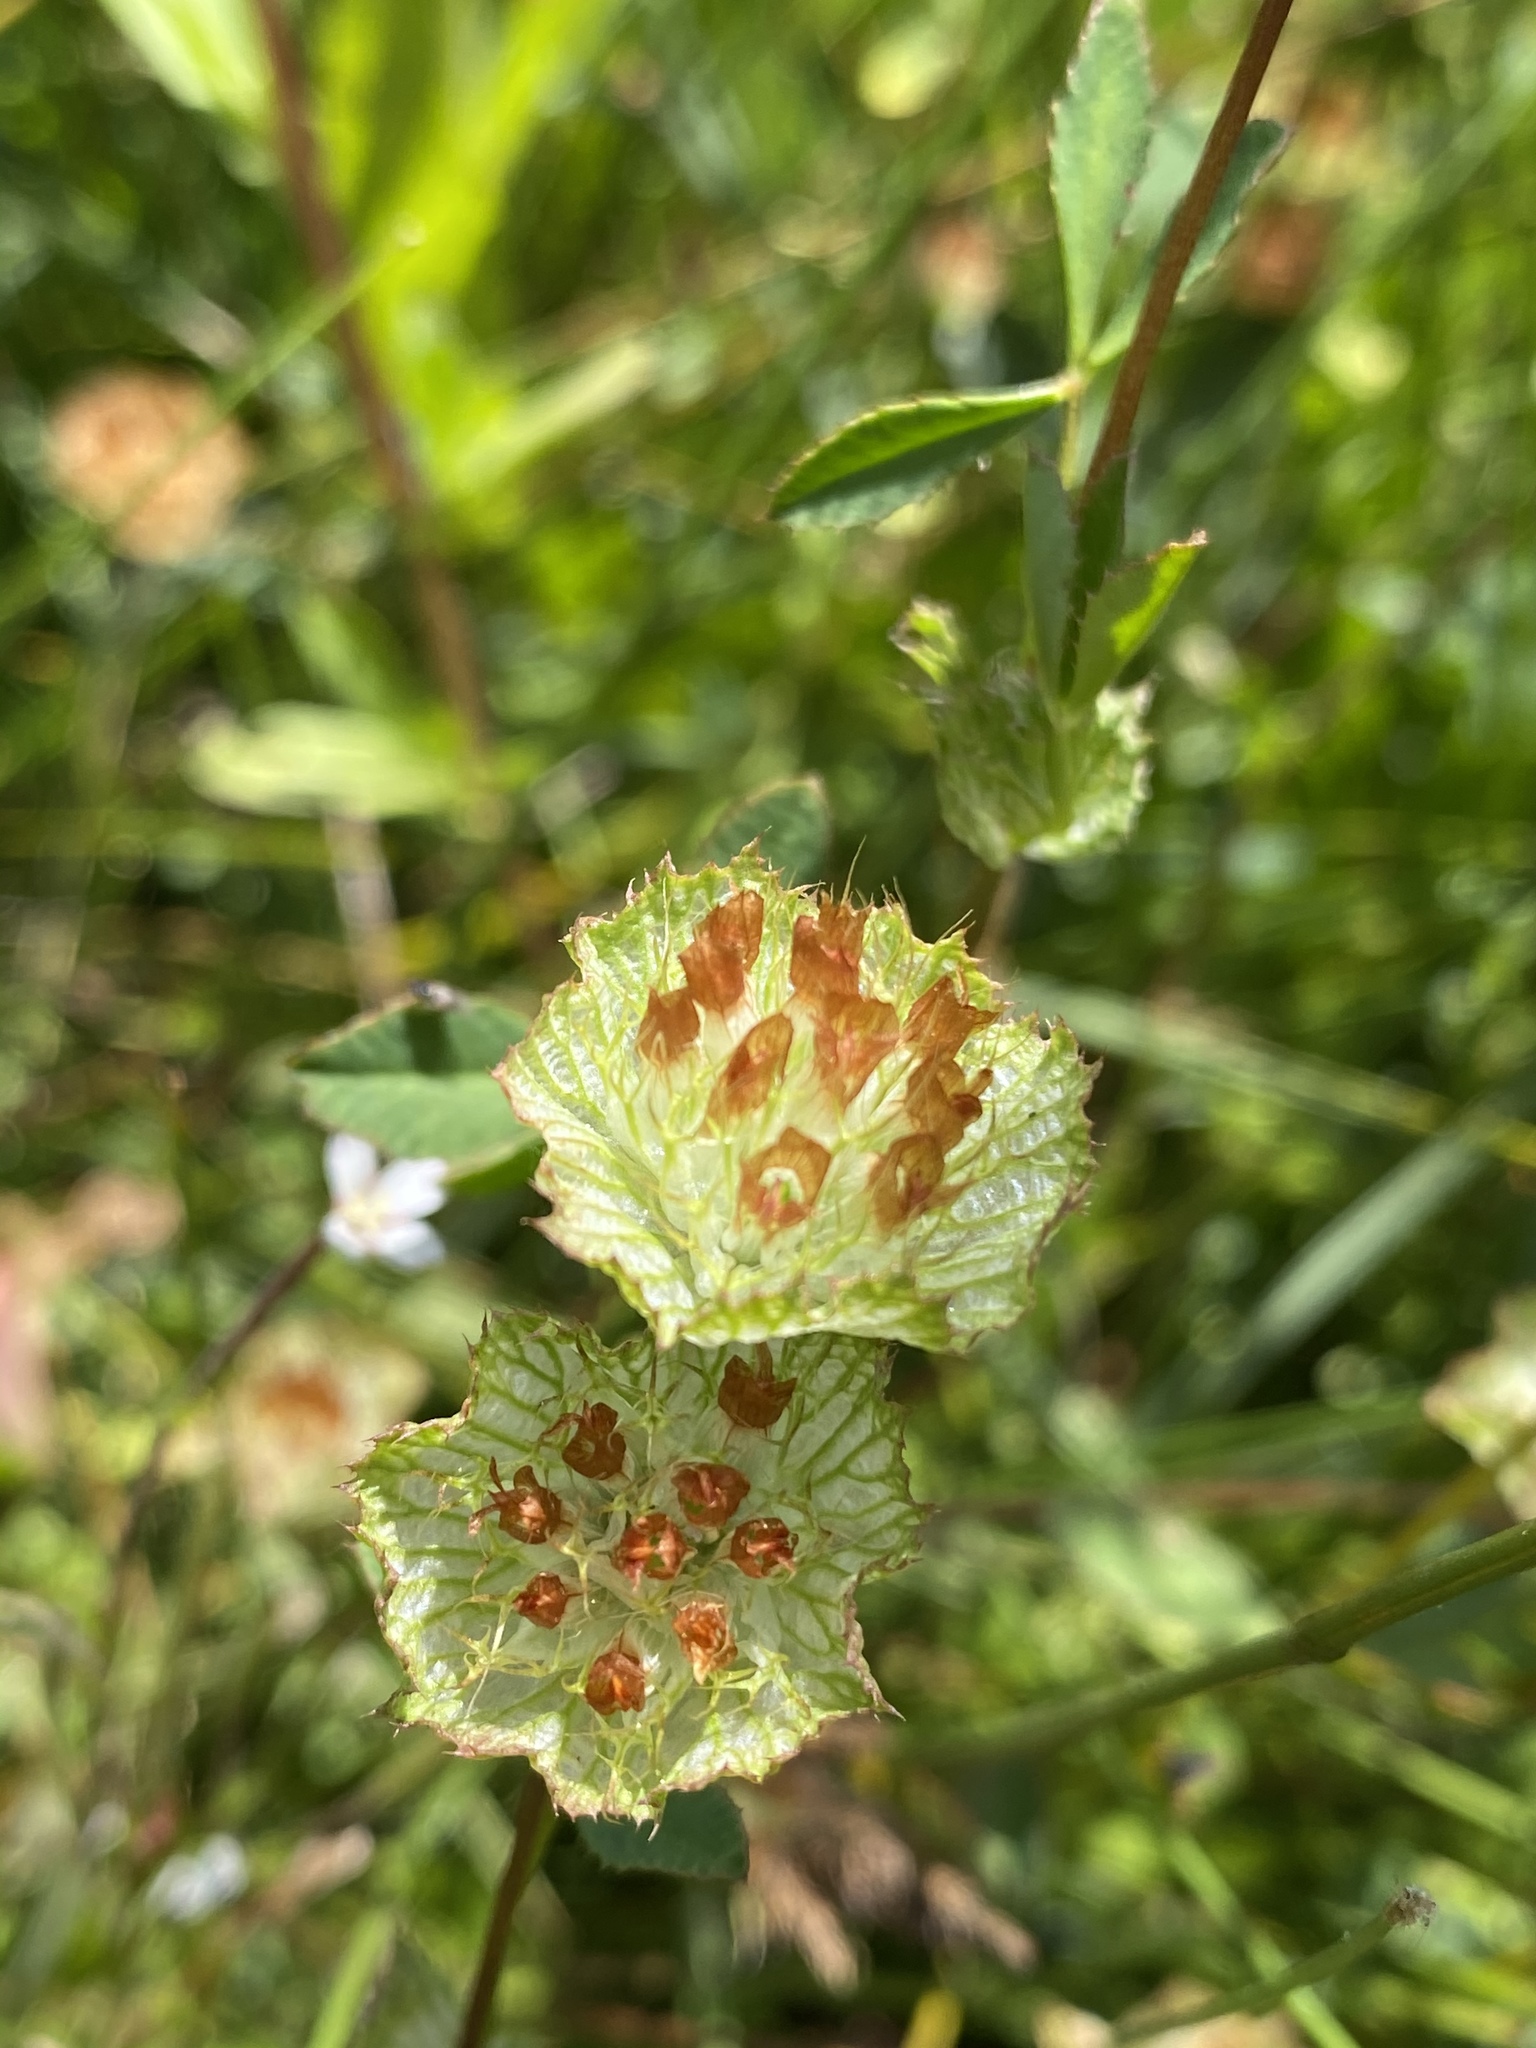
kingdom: Plantae
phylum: Tracheophyta
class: Magnoliopsida
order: Fabales
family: Fabaceae
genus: Trifolium
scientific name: Trifolium cyathiferum
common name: Bowl clover
